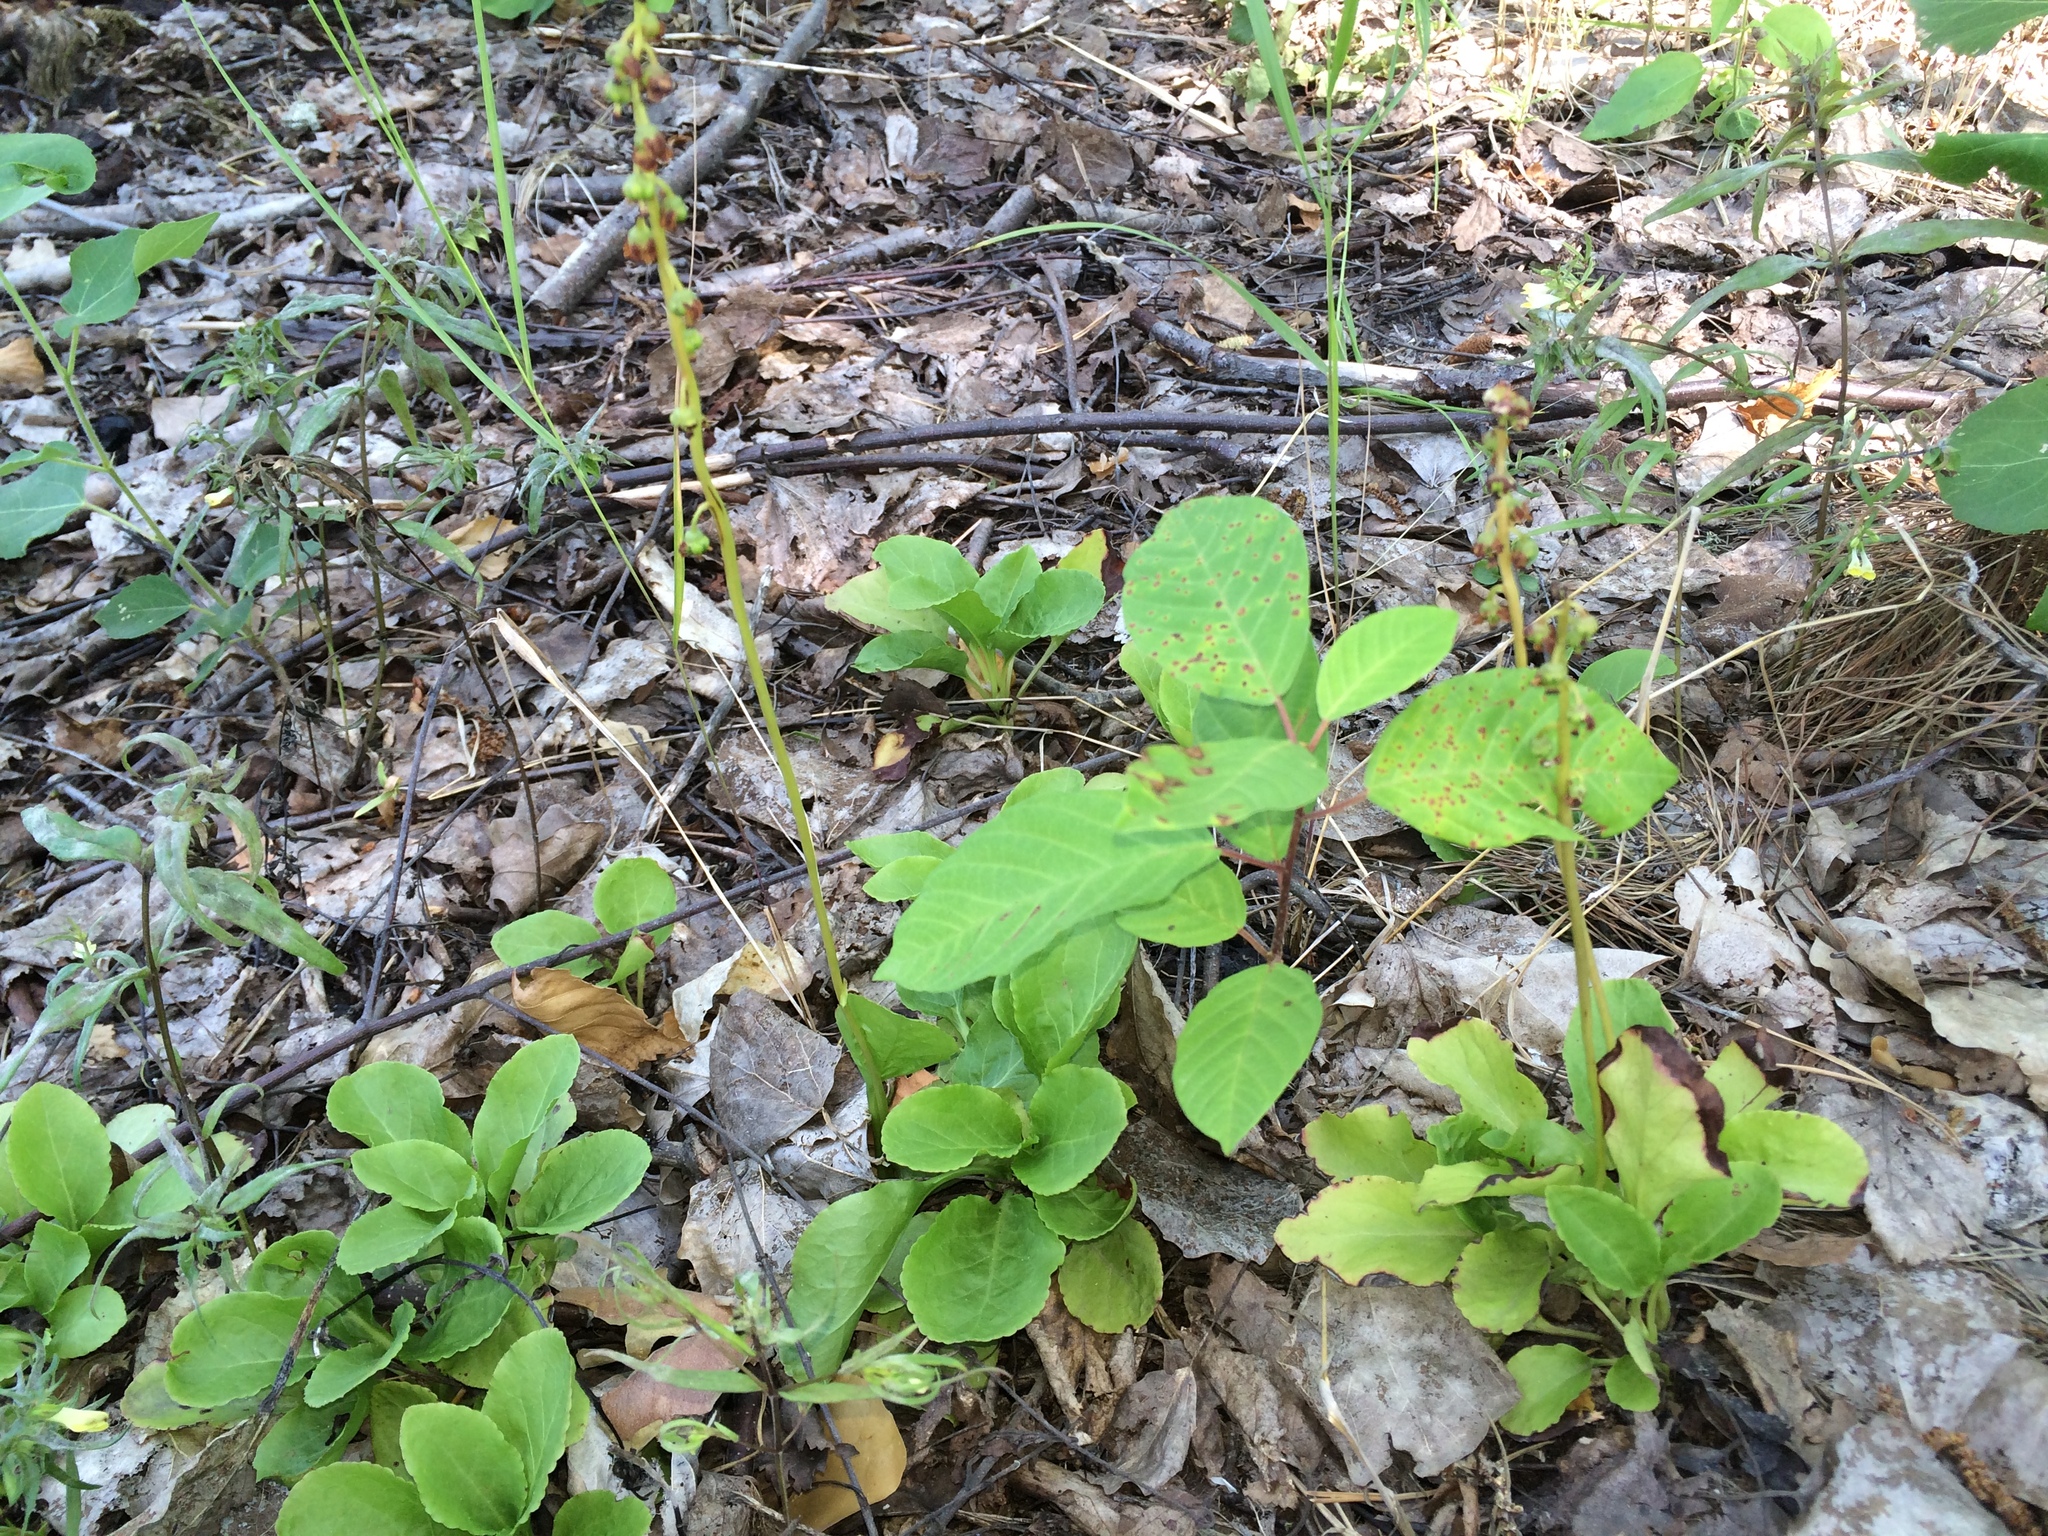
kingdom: Plantae
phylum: Tracheophyta
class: Magnoliopsida
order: Ericales
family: Ericaceae
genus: Pyrola
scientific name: Pyrola minor
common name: Common wintergreen
